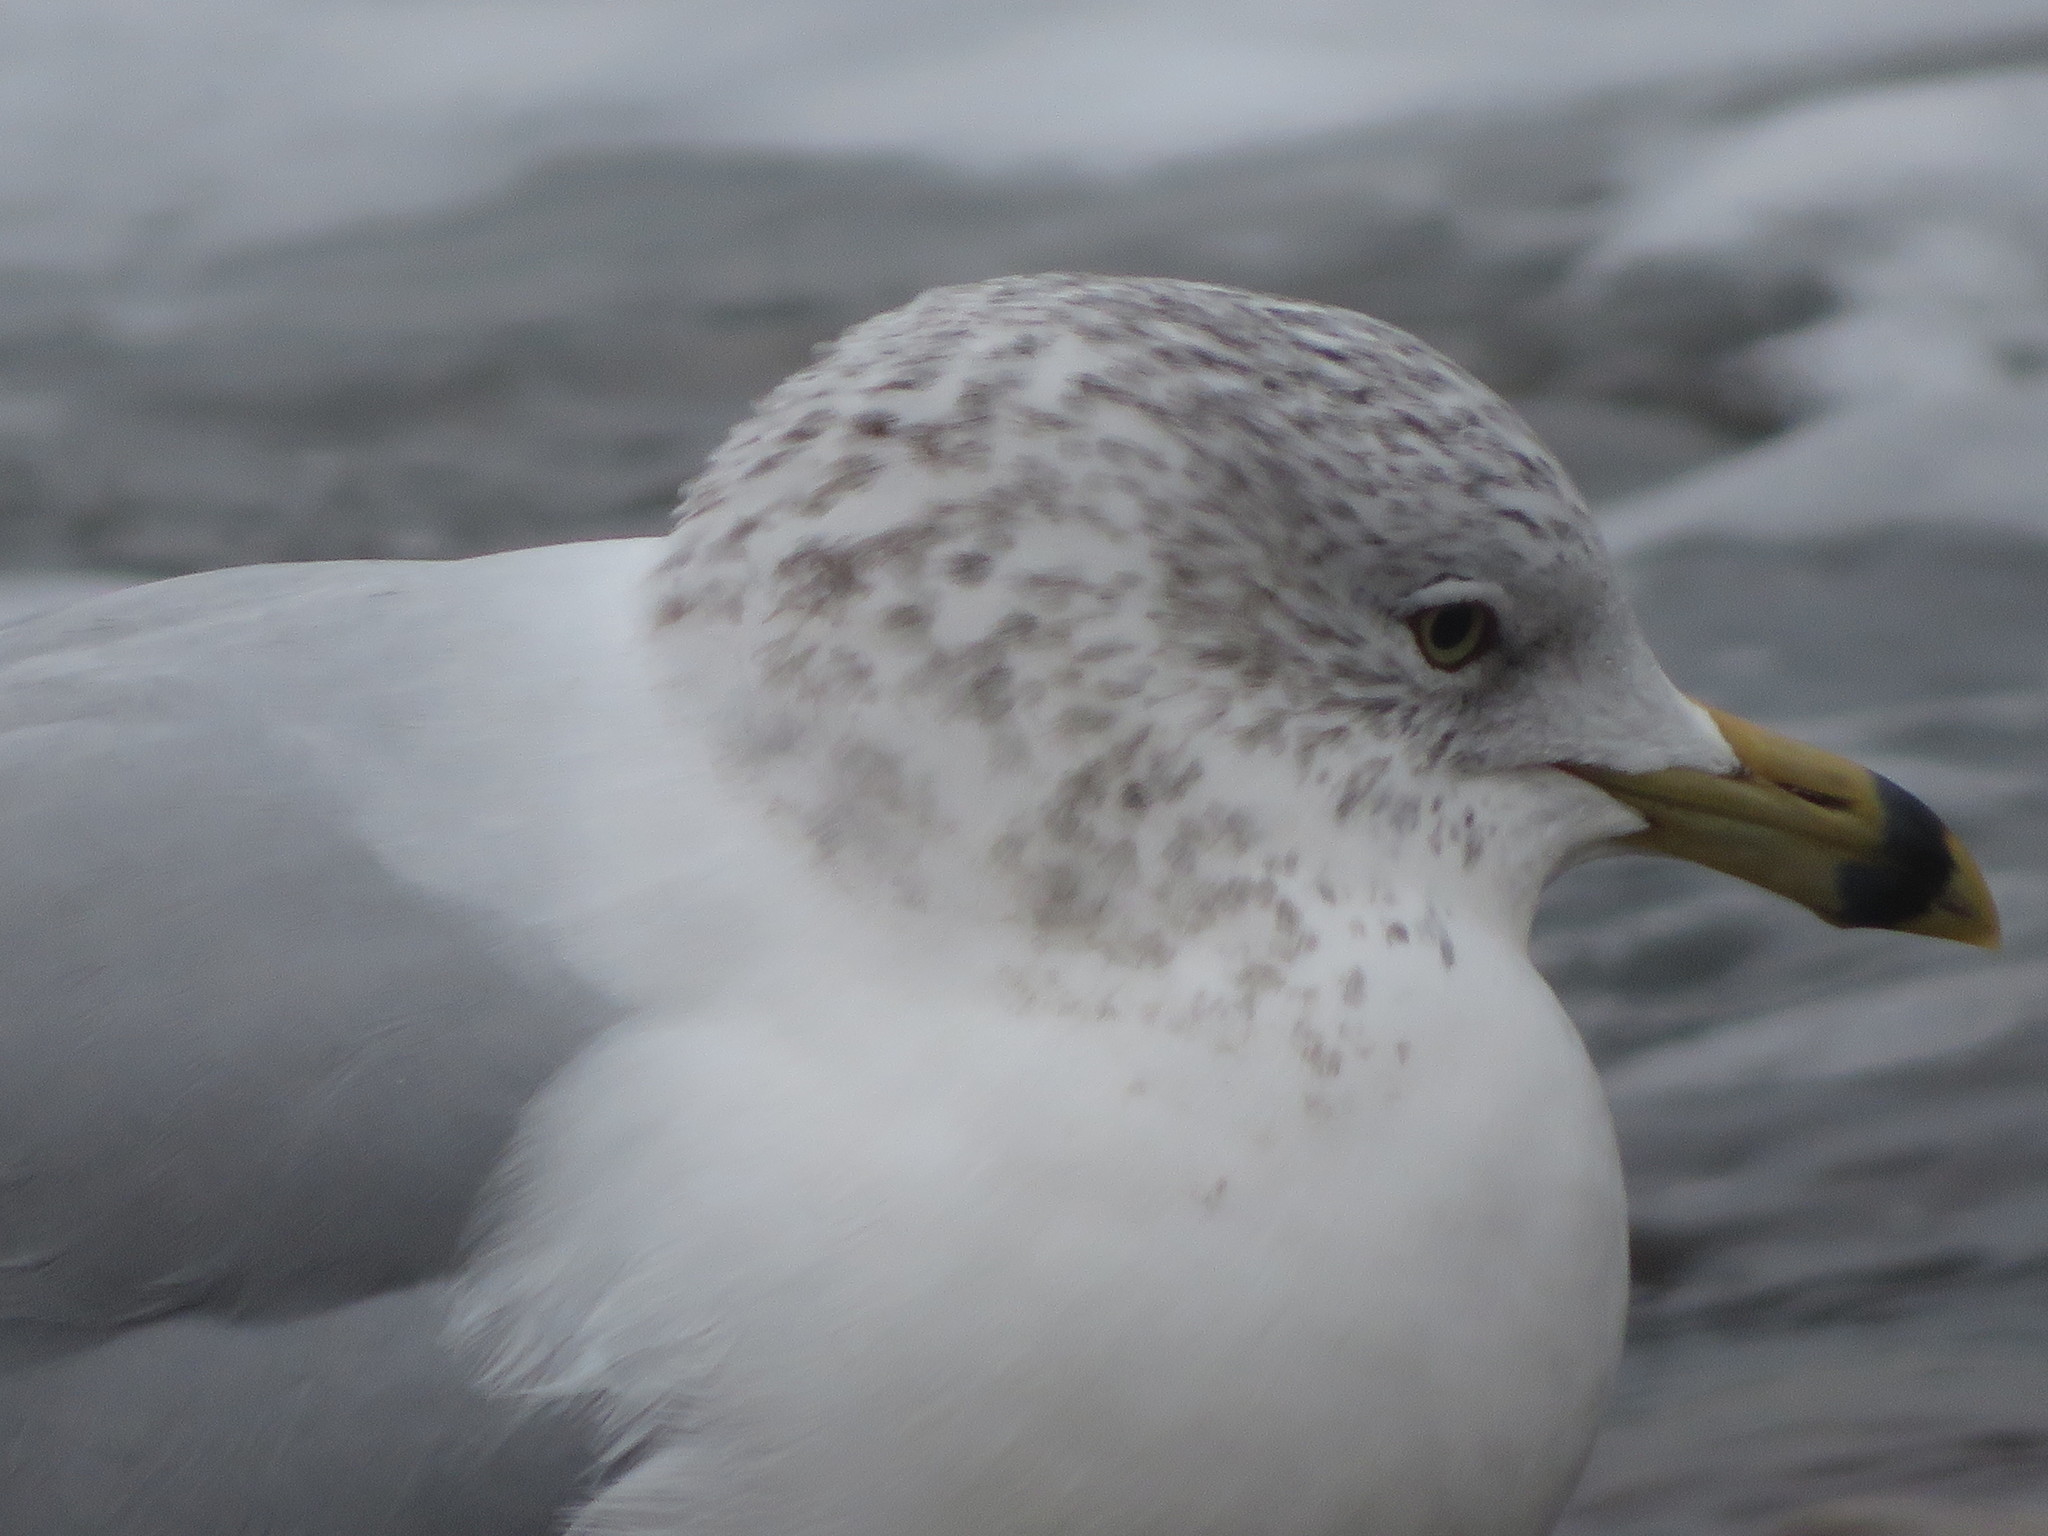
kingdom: Animalia
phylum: Chordata
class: Aves
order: Charadriiformes
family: Laridae
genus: Larus
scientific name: Larus delawarensis
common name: Ring-billed gull
